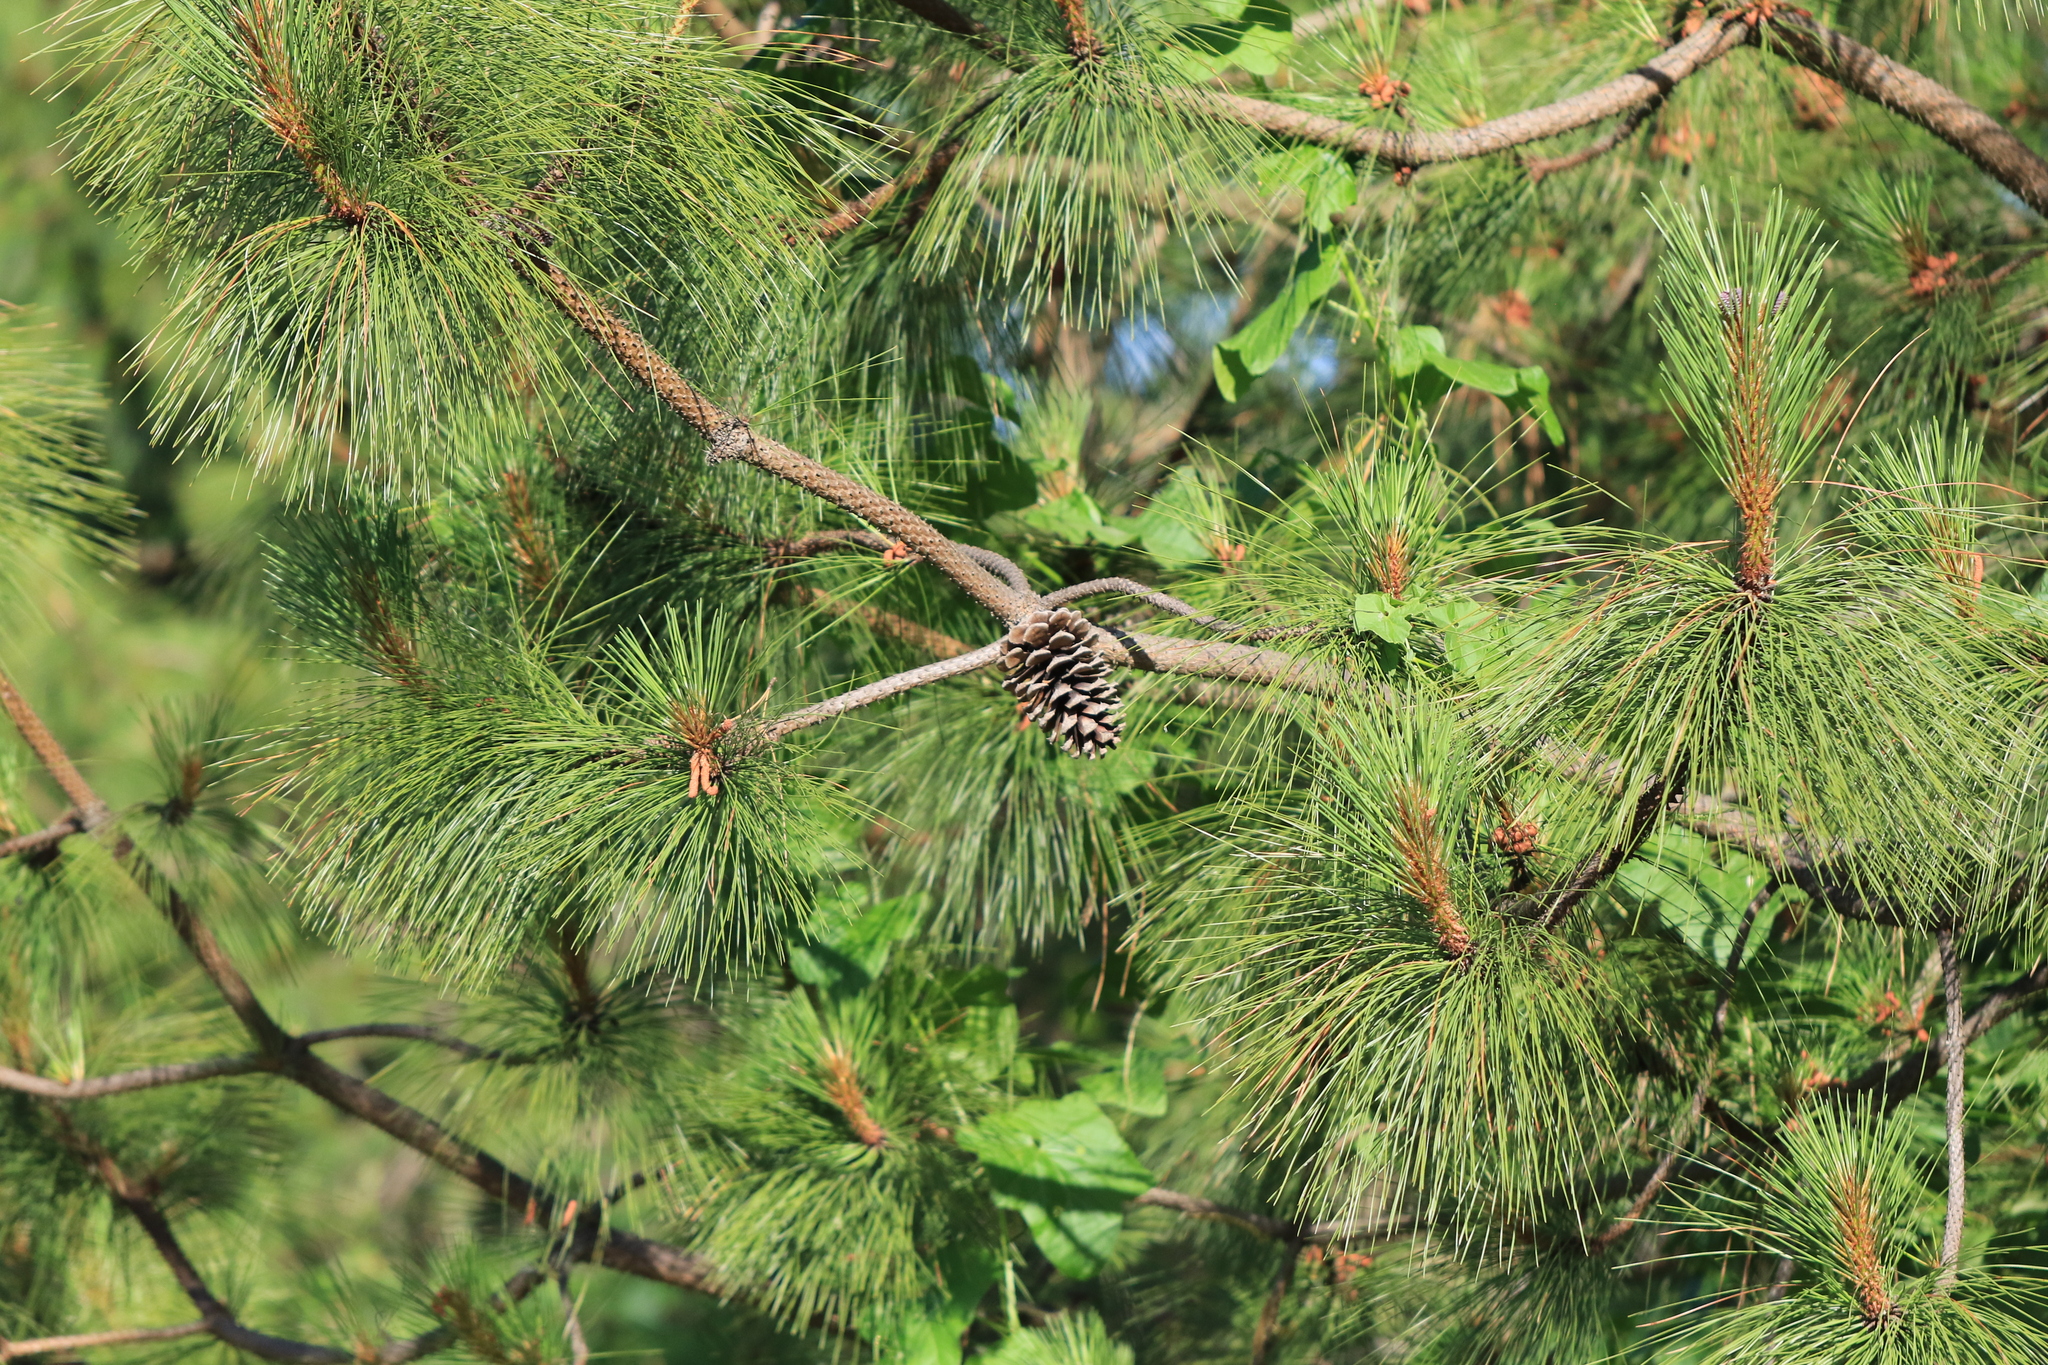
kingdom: Plantae
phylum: Tracheophyta
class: Pinopsida
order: Pinales
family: Pinaceae
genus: Pinus
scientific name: Pinus ponderosa
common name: Western yellow-pine
